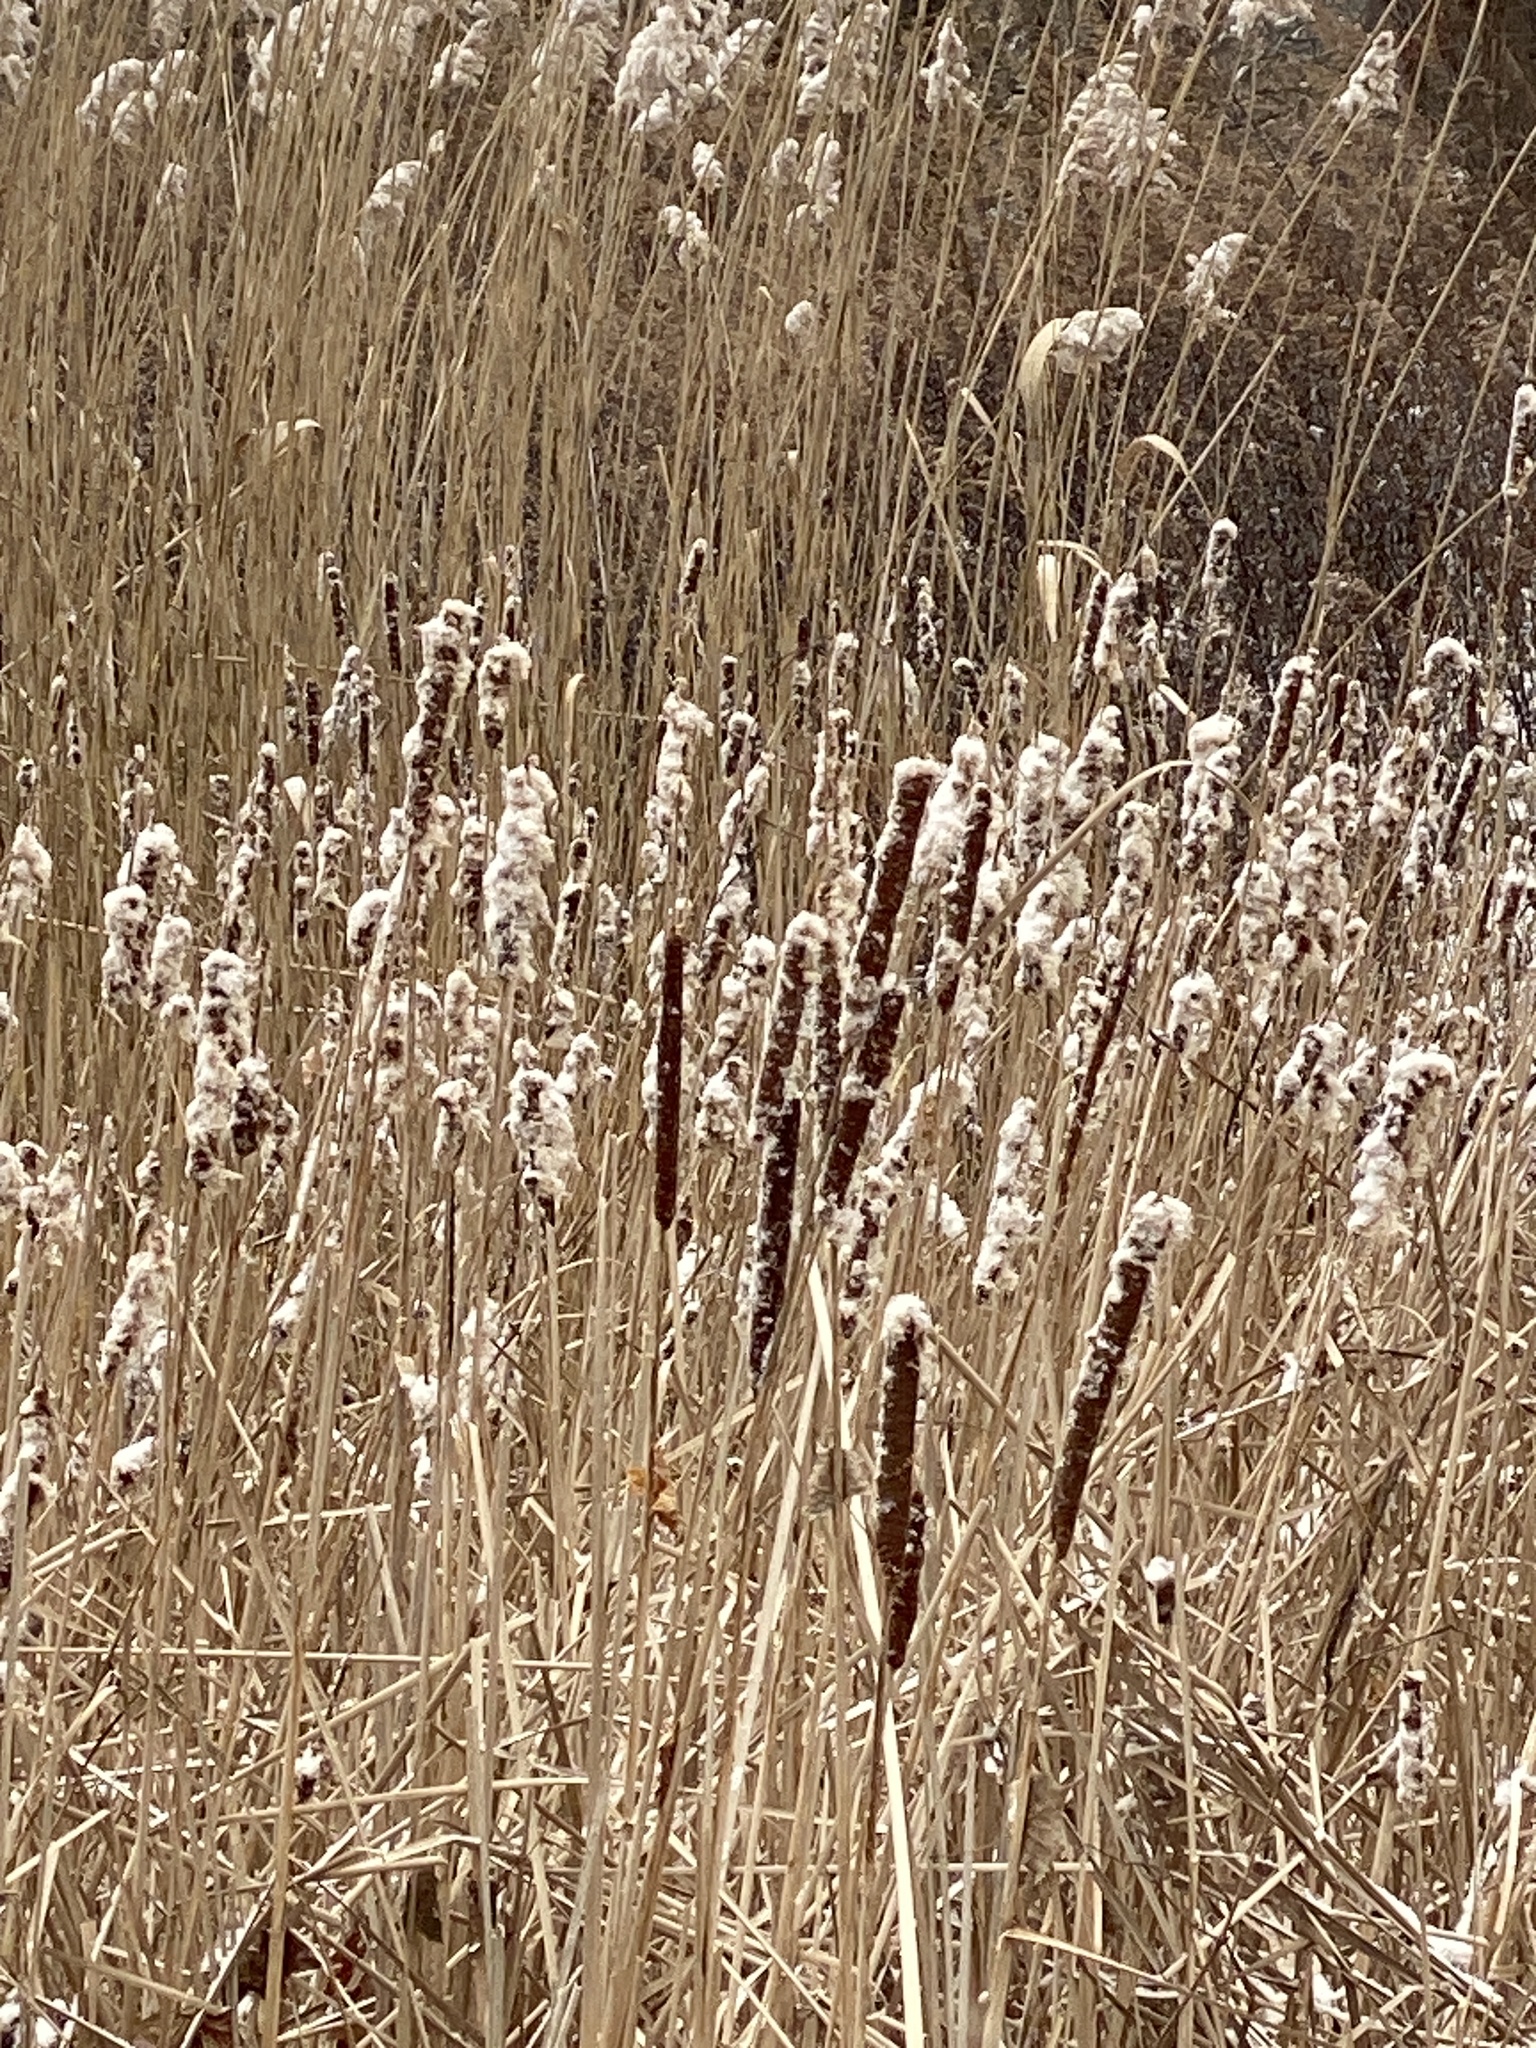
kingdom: Plantae
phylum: Tracheophyta
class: Liliopsida
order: Poales
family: Typhaceae
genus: Typha
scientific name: Typha
